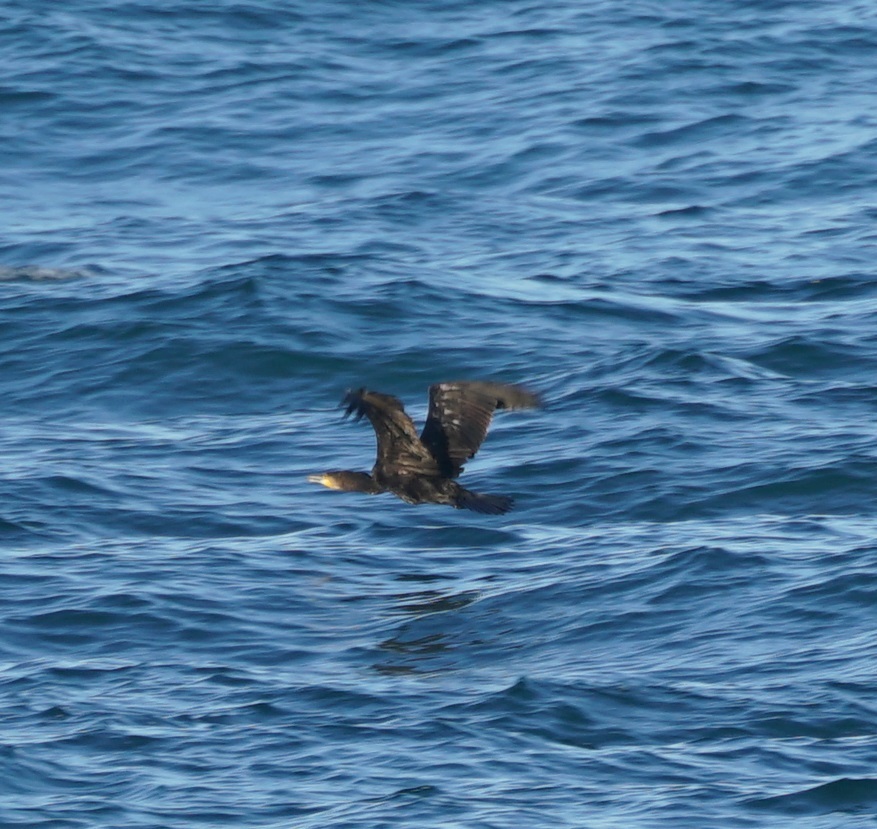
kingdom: Animalia
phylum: Chordata
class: Aves
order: Suliformes
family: Phalacrocoracidae
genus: Phalacrocorax
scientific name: Phalacrocorax carbo
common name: Great cormorant
